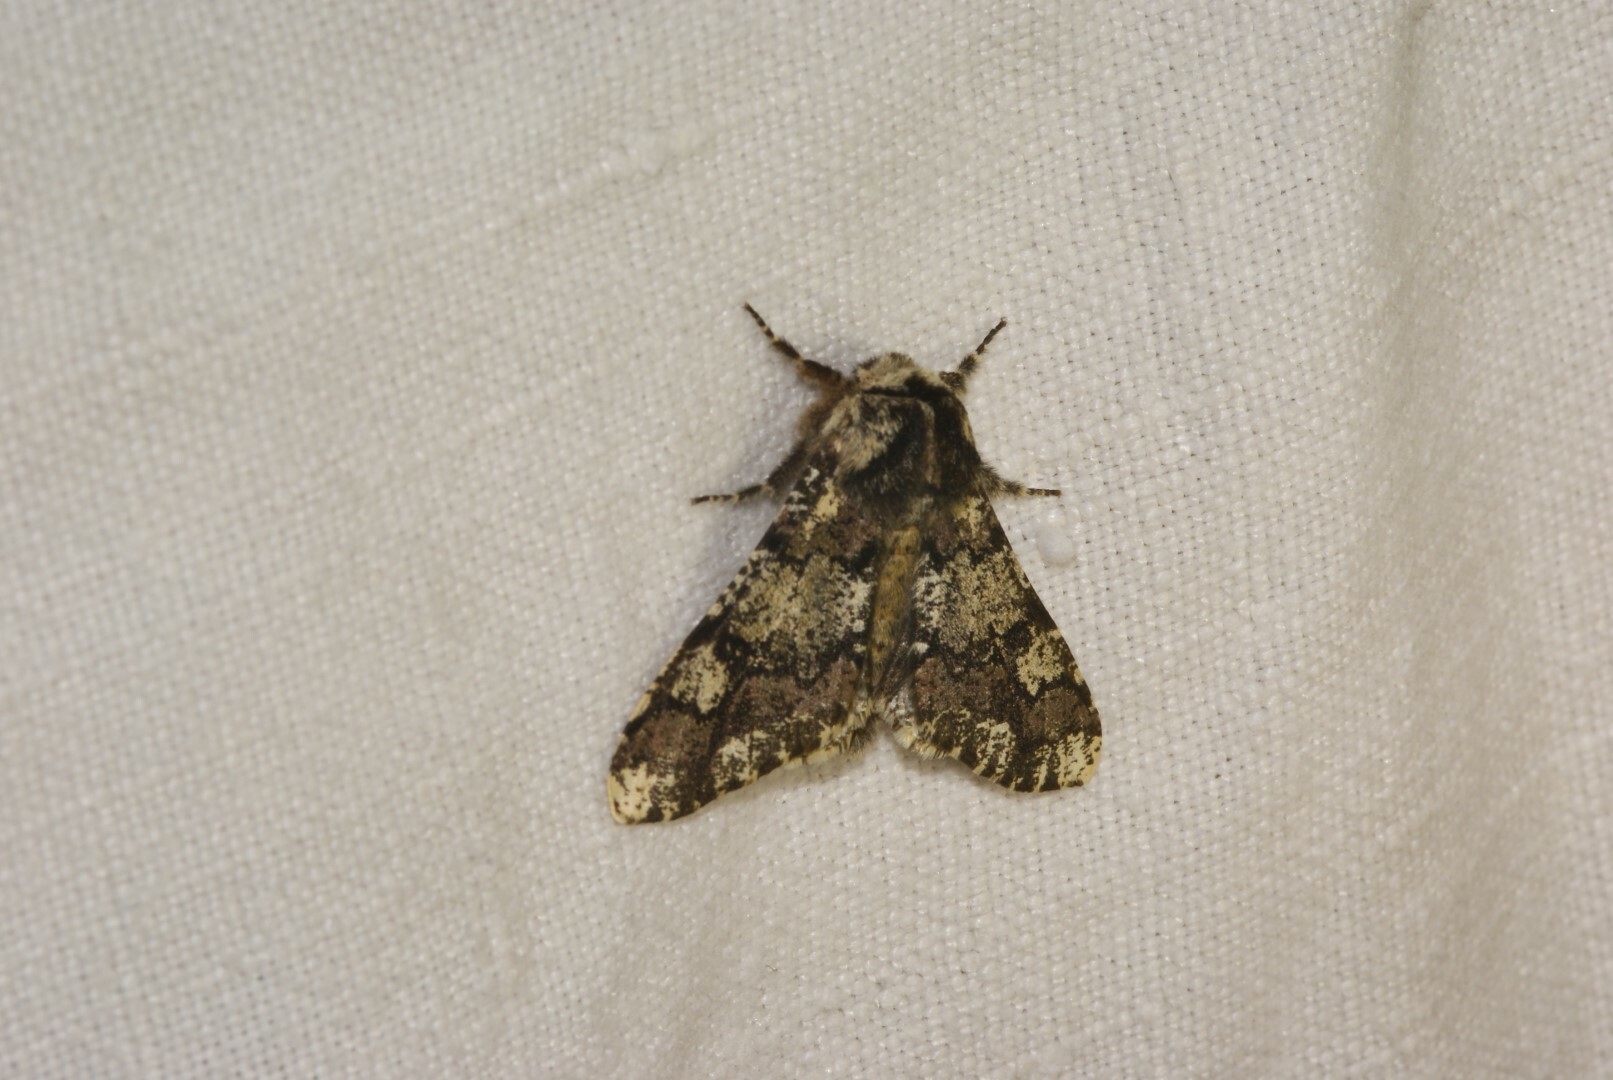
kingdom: Animalia
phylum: Arthropoda
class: Insecta
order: Lepidoptera
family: Geometridae
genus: Biston
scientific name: Biston strataria
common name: Oak beauty
